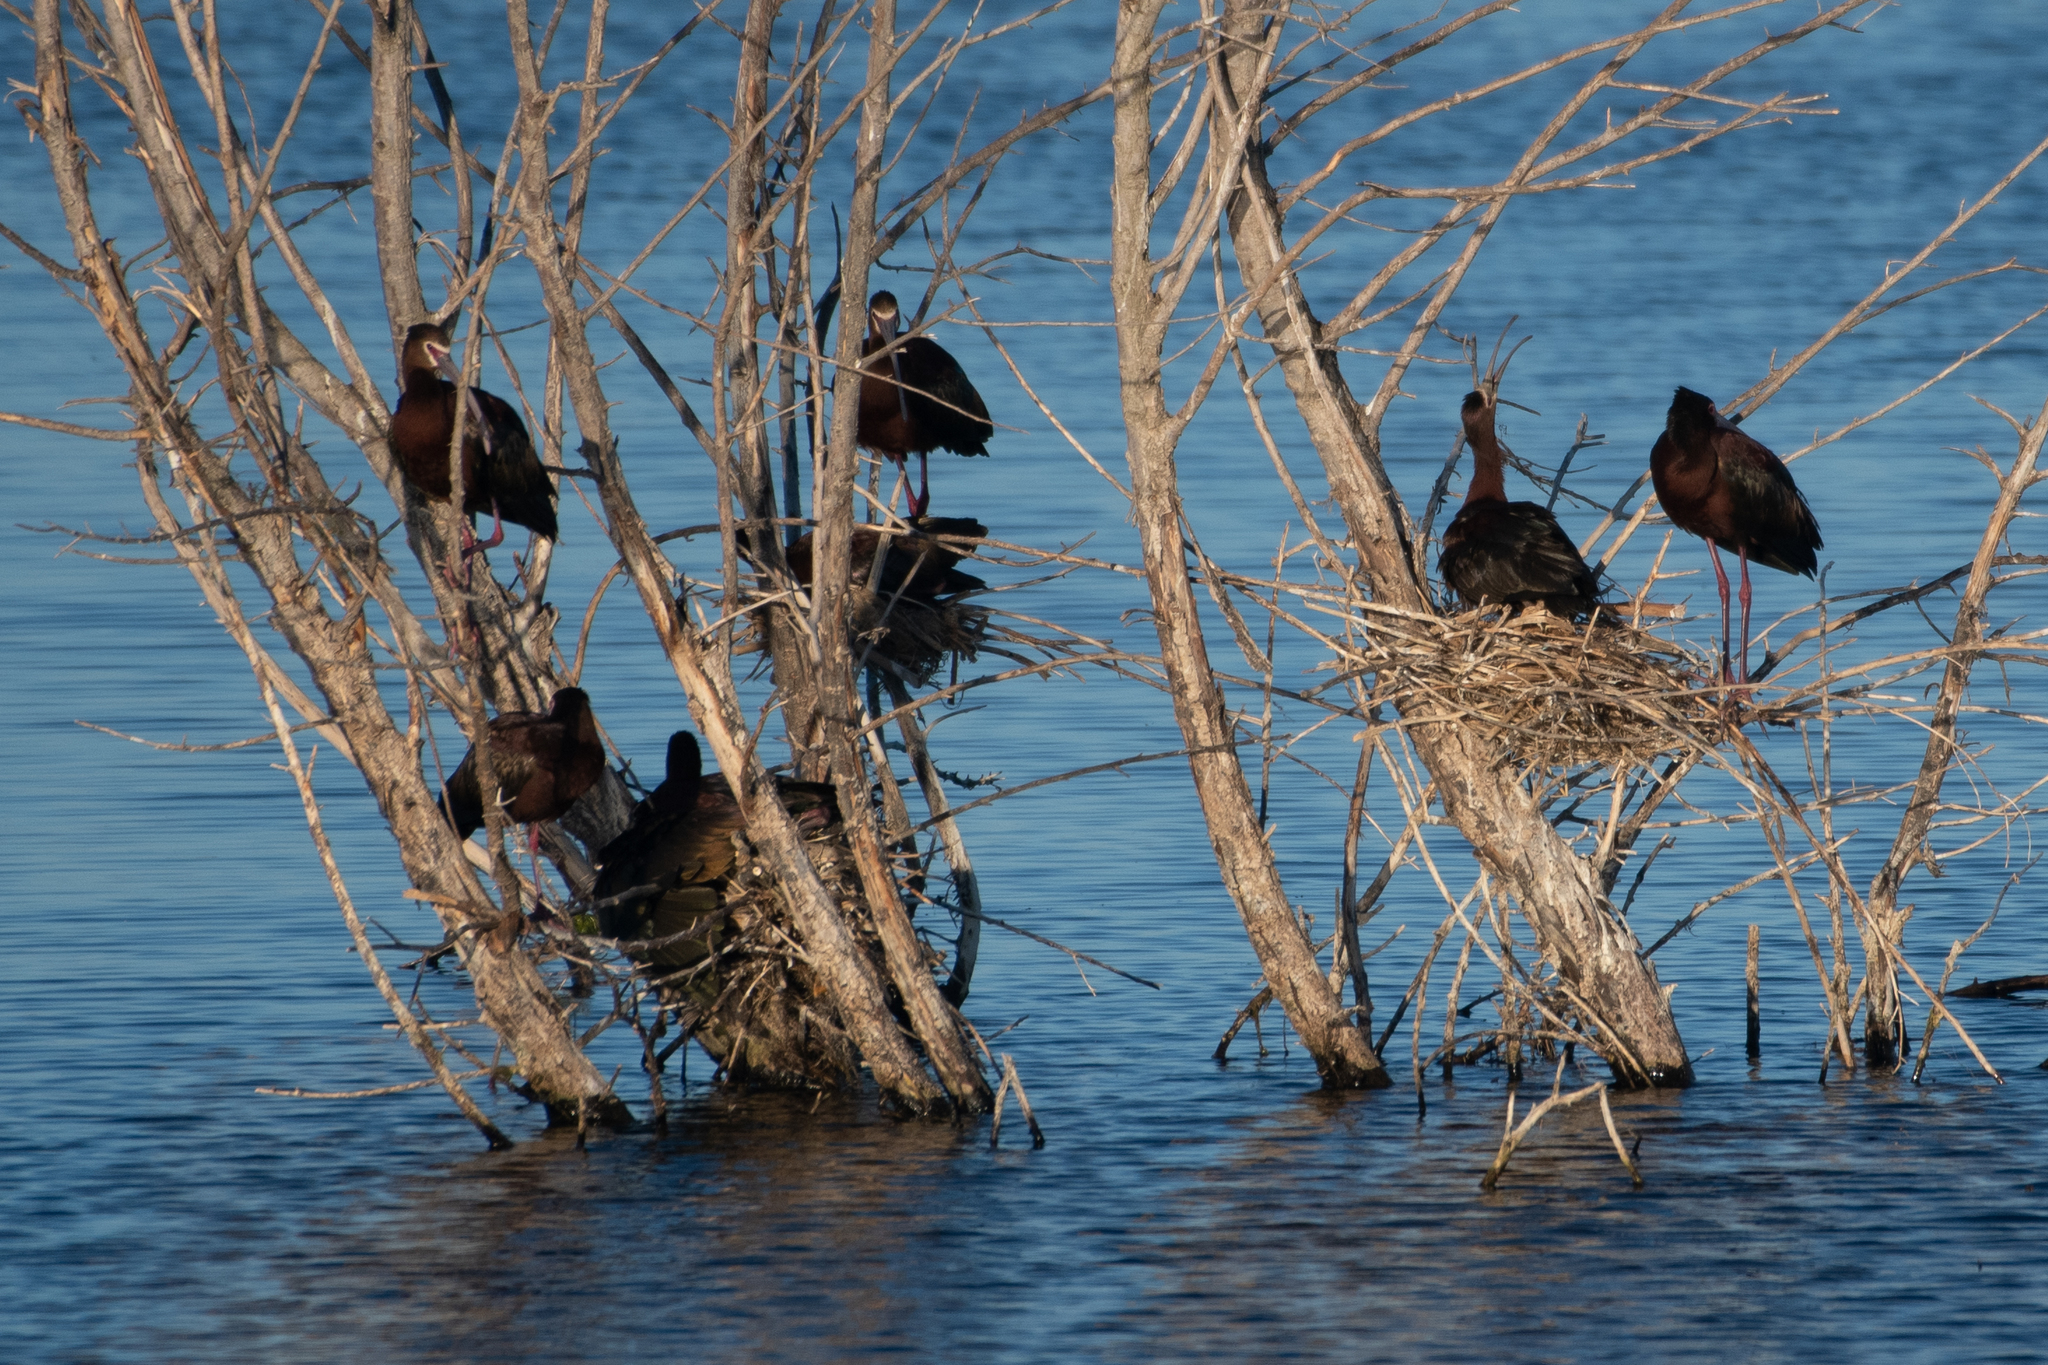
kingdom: Animalia
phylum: Chordata
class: Aves
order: Pelecaniformes
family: Threskiornithidae
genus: Plegadis
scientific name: Plegadis chihi
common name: White-faced ibis
